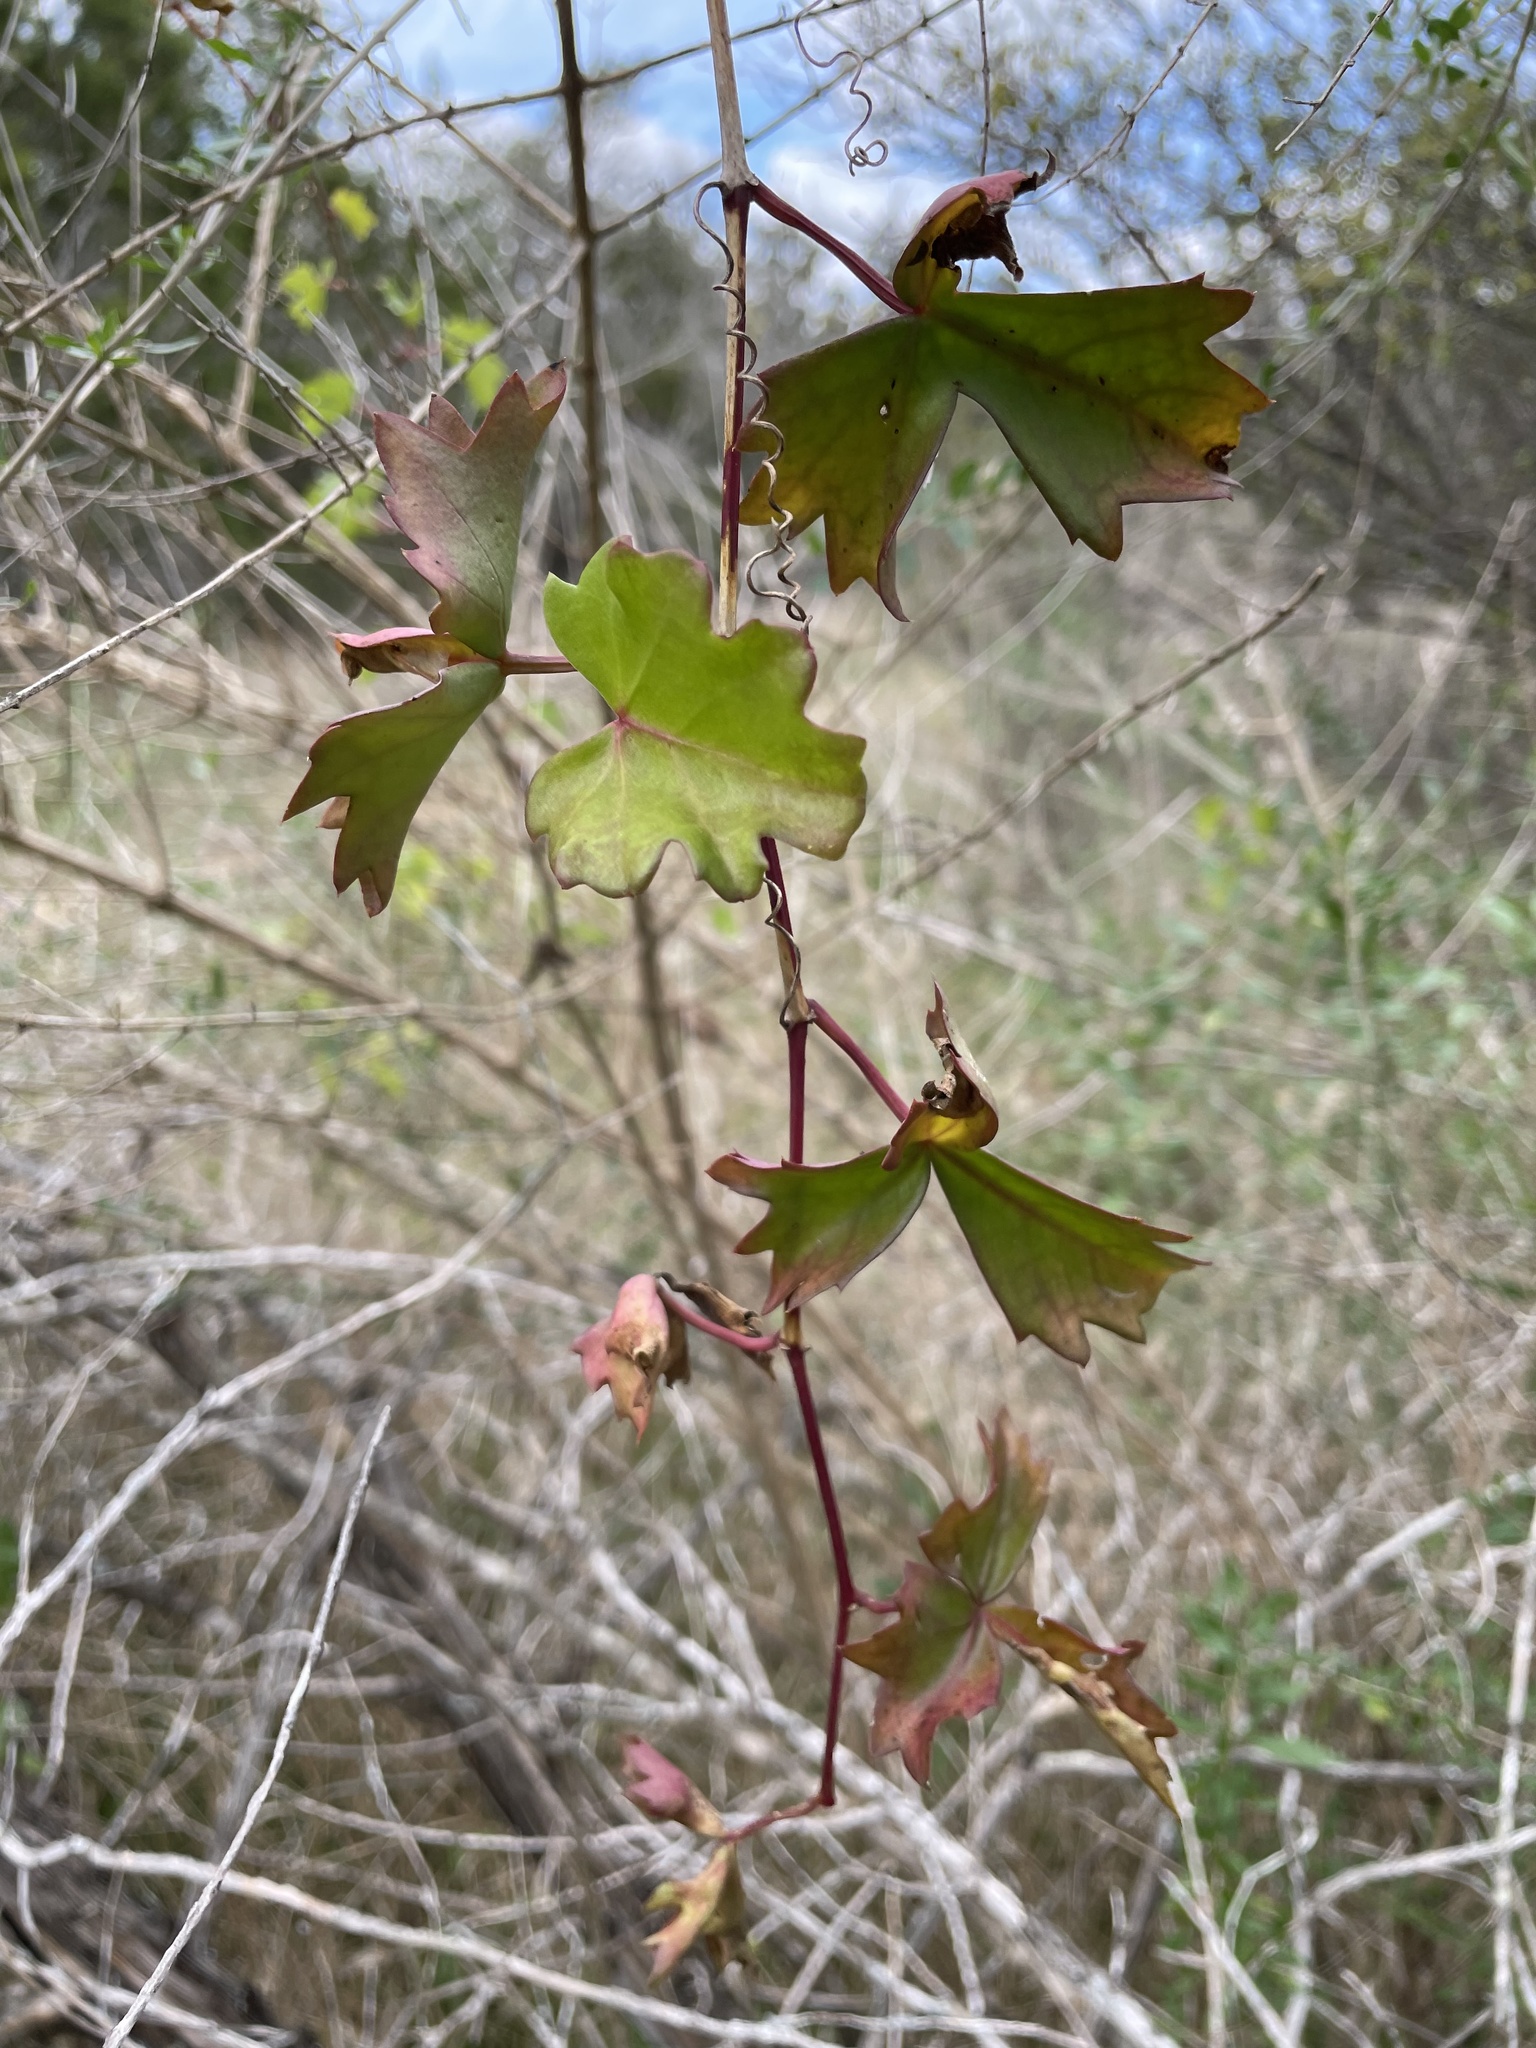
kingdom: Plantae
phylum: Tracheophyta
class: Magnoliopsida
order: Vitales
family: Vitaceae
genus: Cissus
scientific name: Cissus trifoliata
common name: Vine-sorrel
